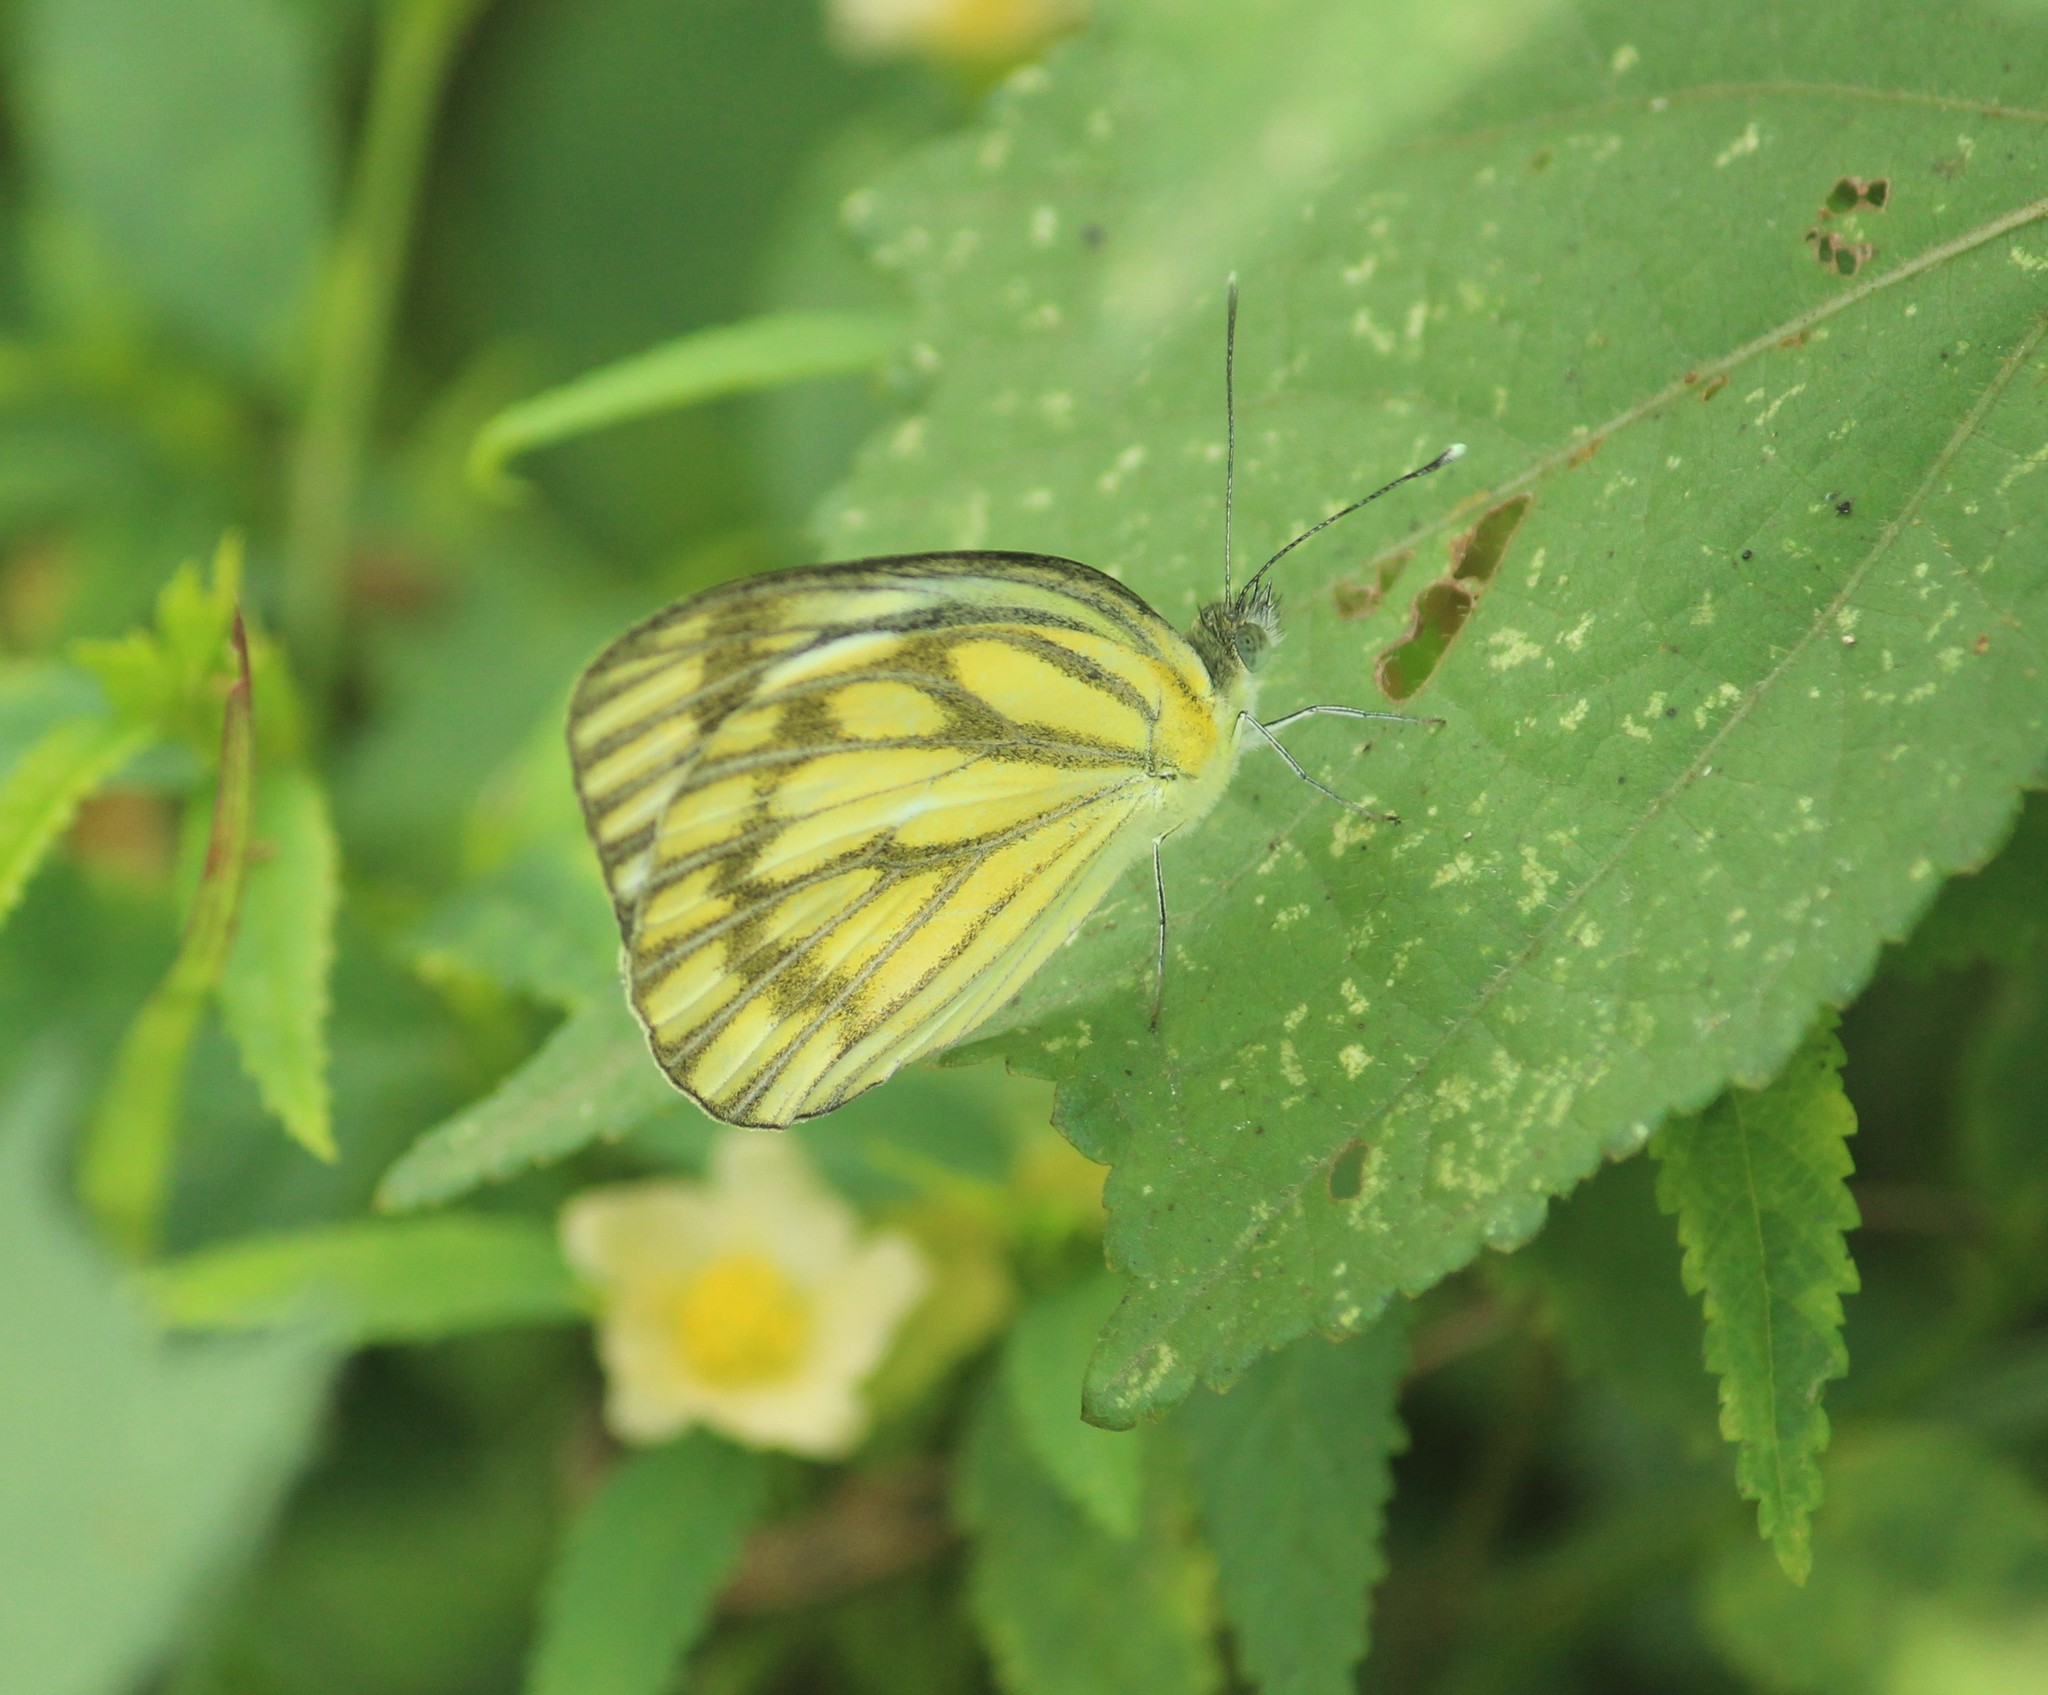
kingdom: Animalia
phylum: Arthropoda
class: Insecta
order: Lepidoptera
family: Pieridae
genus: Cepora
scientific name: Cepora nerissa
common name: Common gull
